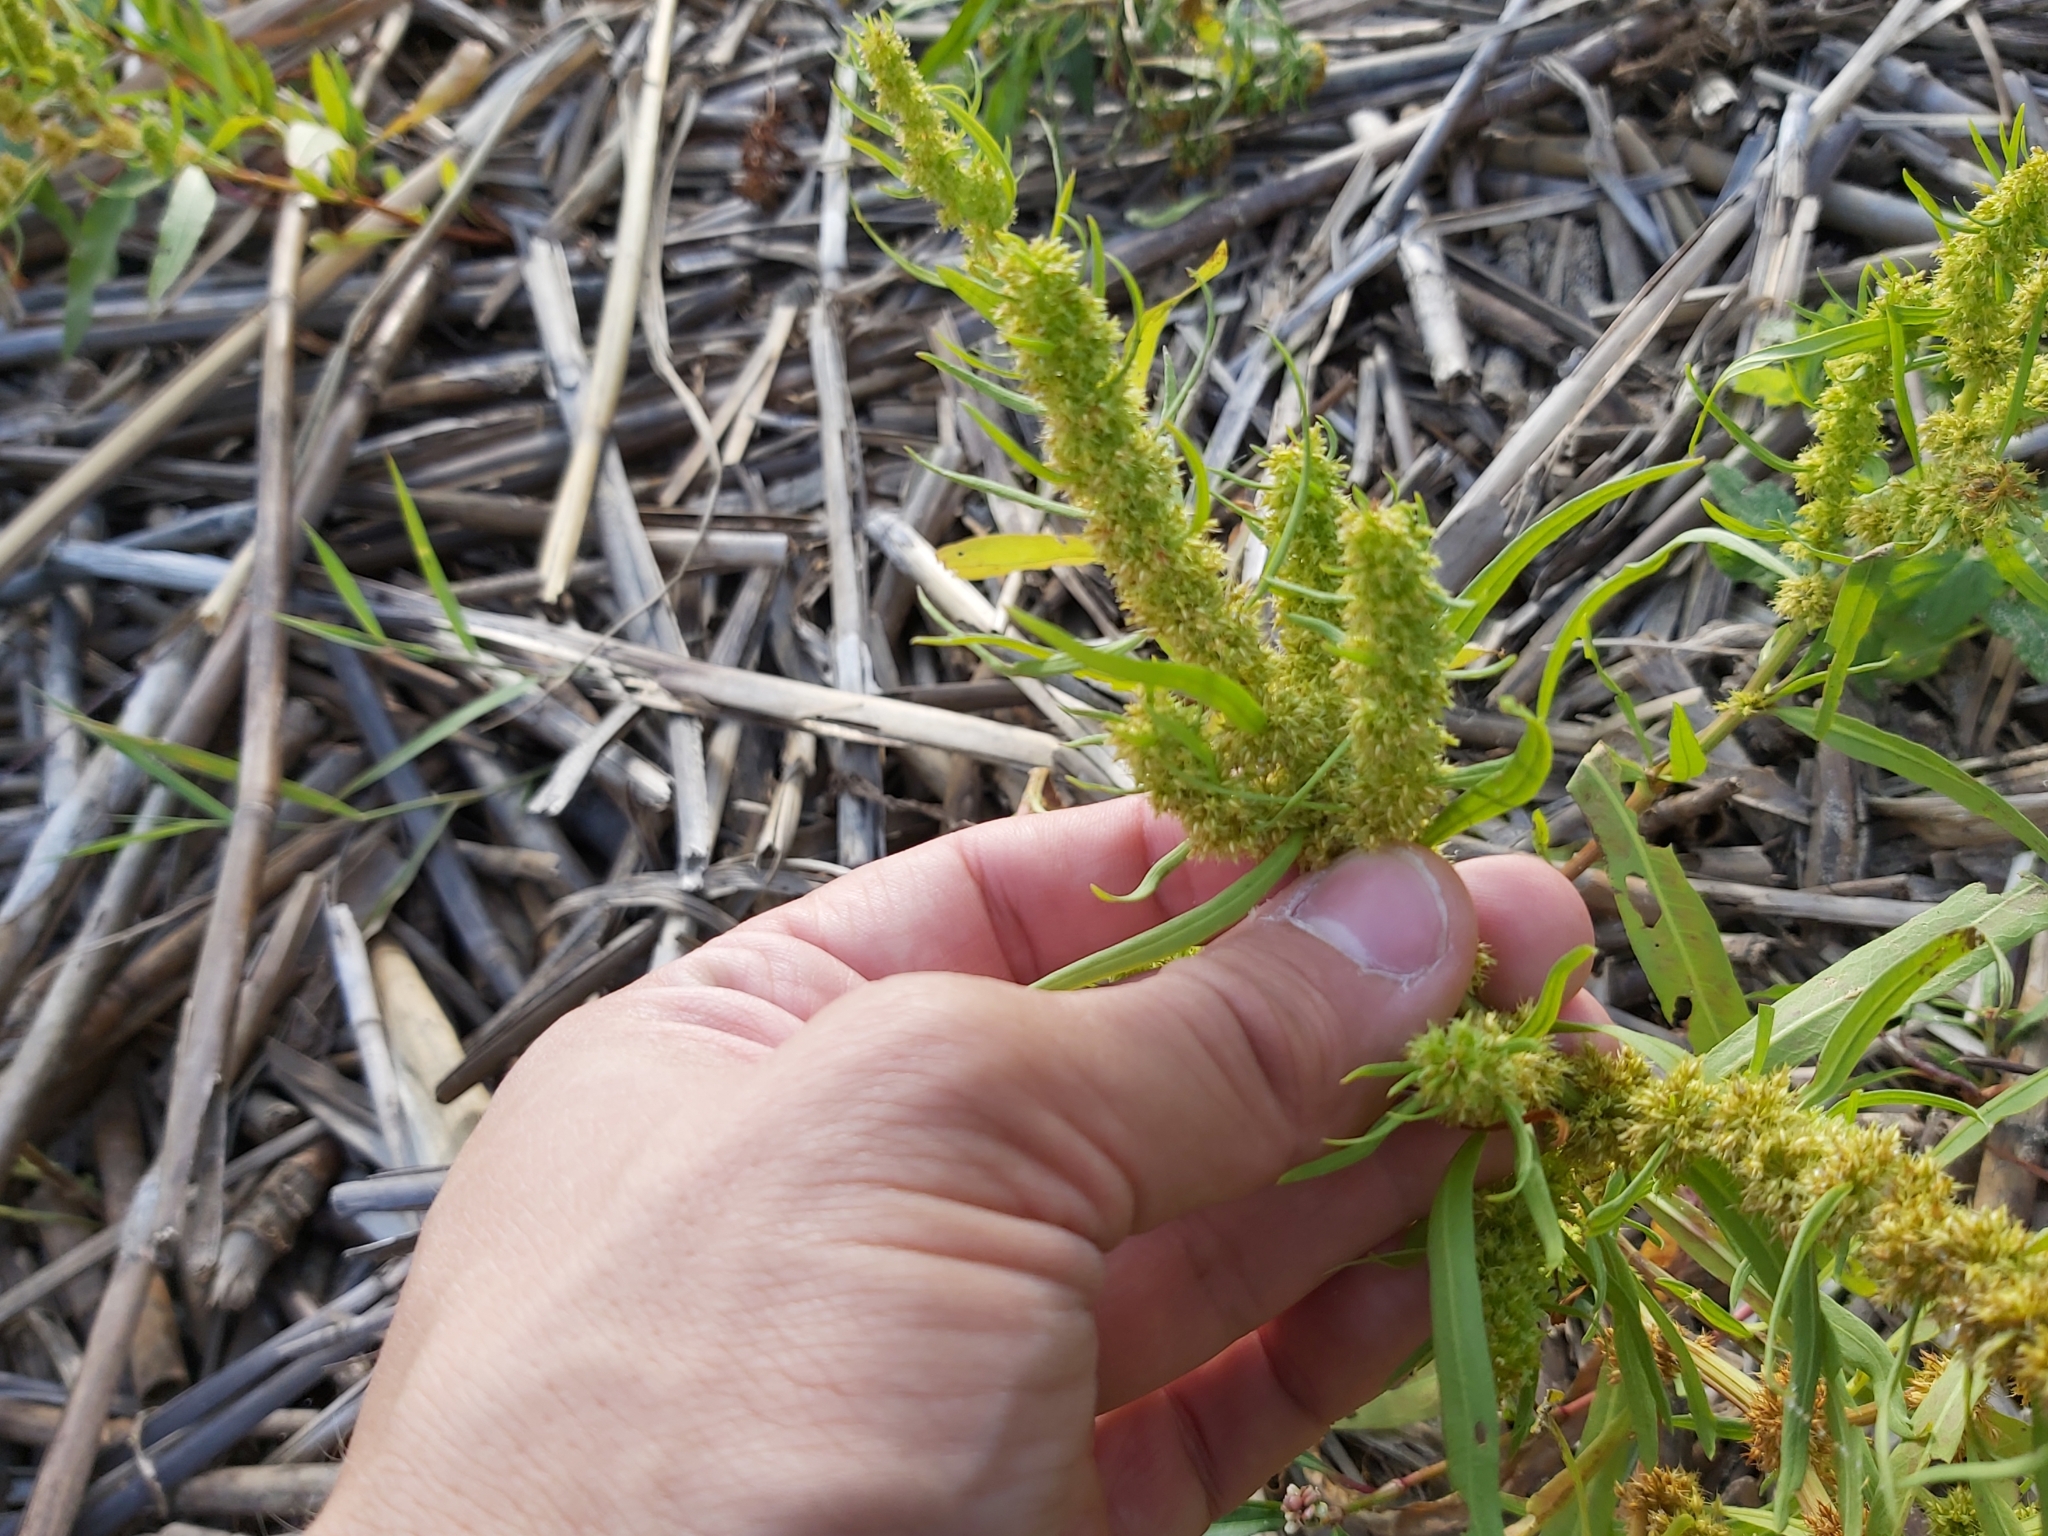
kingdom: Plantae
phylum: Tracheophyta
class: Magnoliopsida
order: Caryophyllales
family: Polygonaceae
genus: Rumex
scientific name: Rumex maritimus
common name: Golden dock
